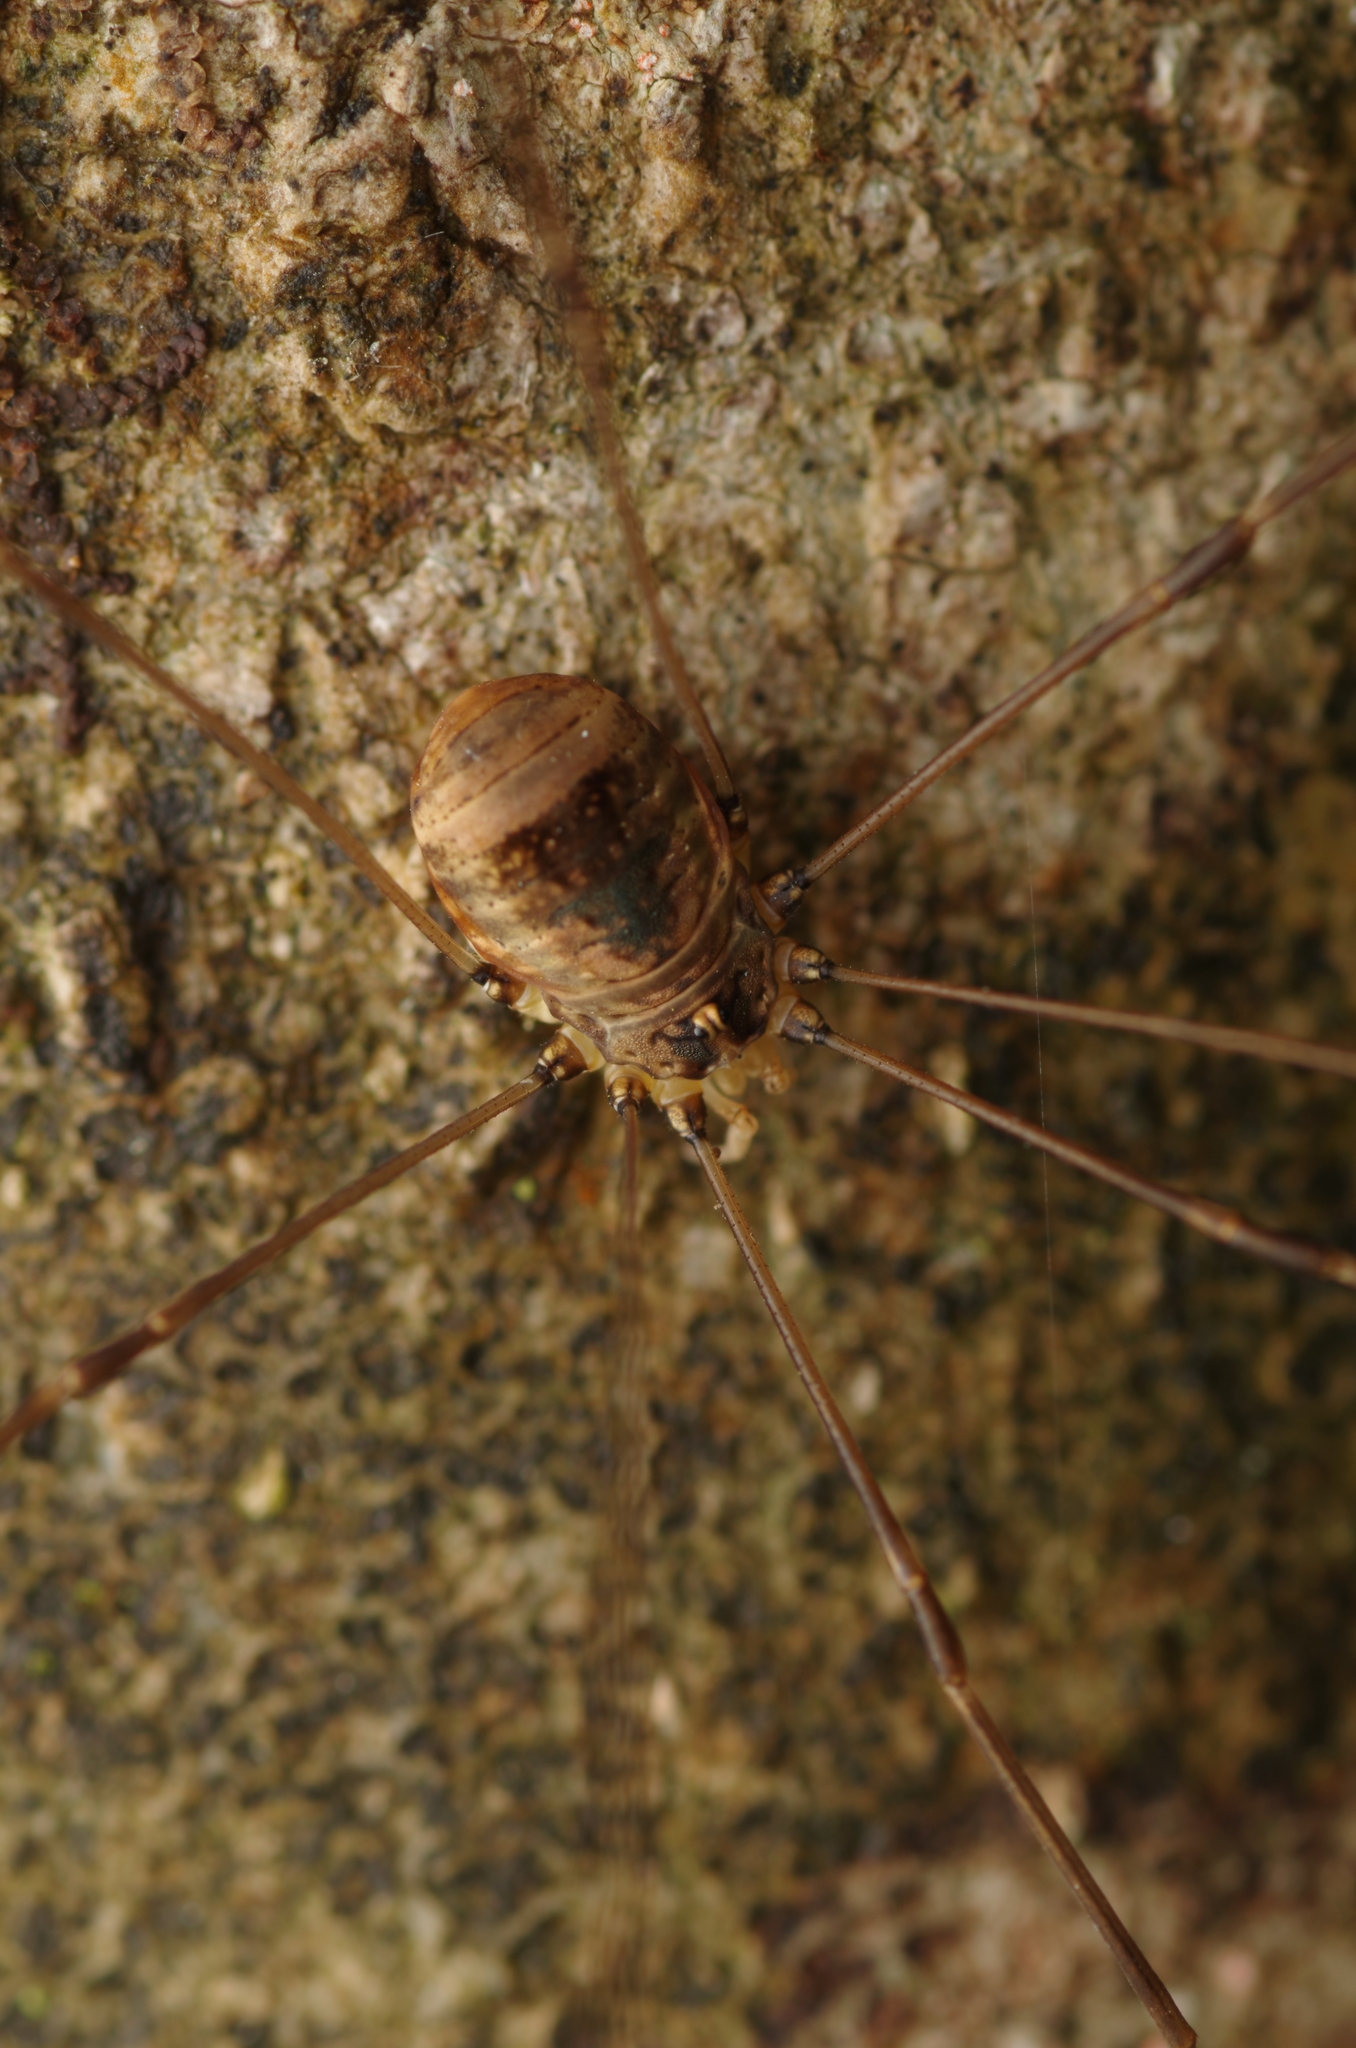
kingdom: Animalia
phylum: Arthropoda
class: Arachnida
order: Opiliones
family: Sclerosomatidae
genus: Leiobunum
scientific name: Leiobunum blackwalli
